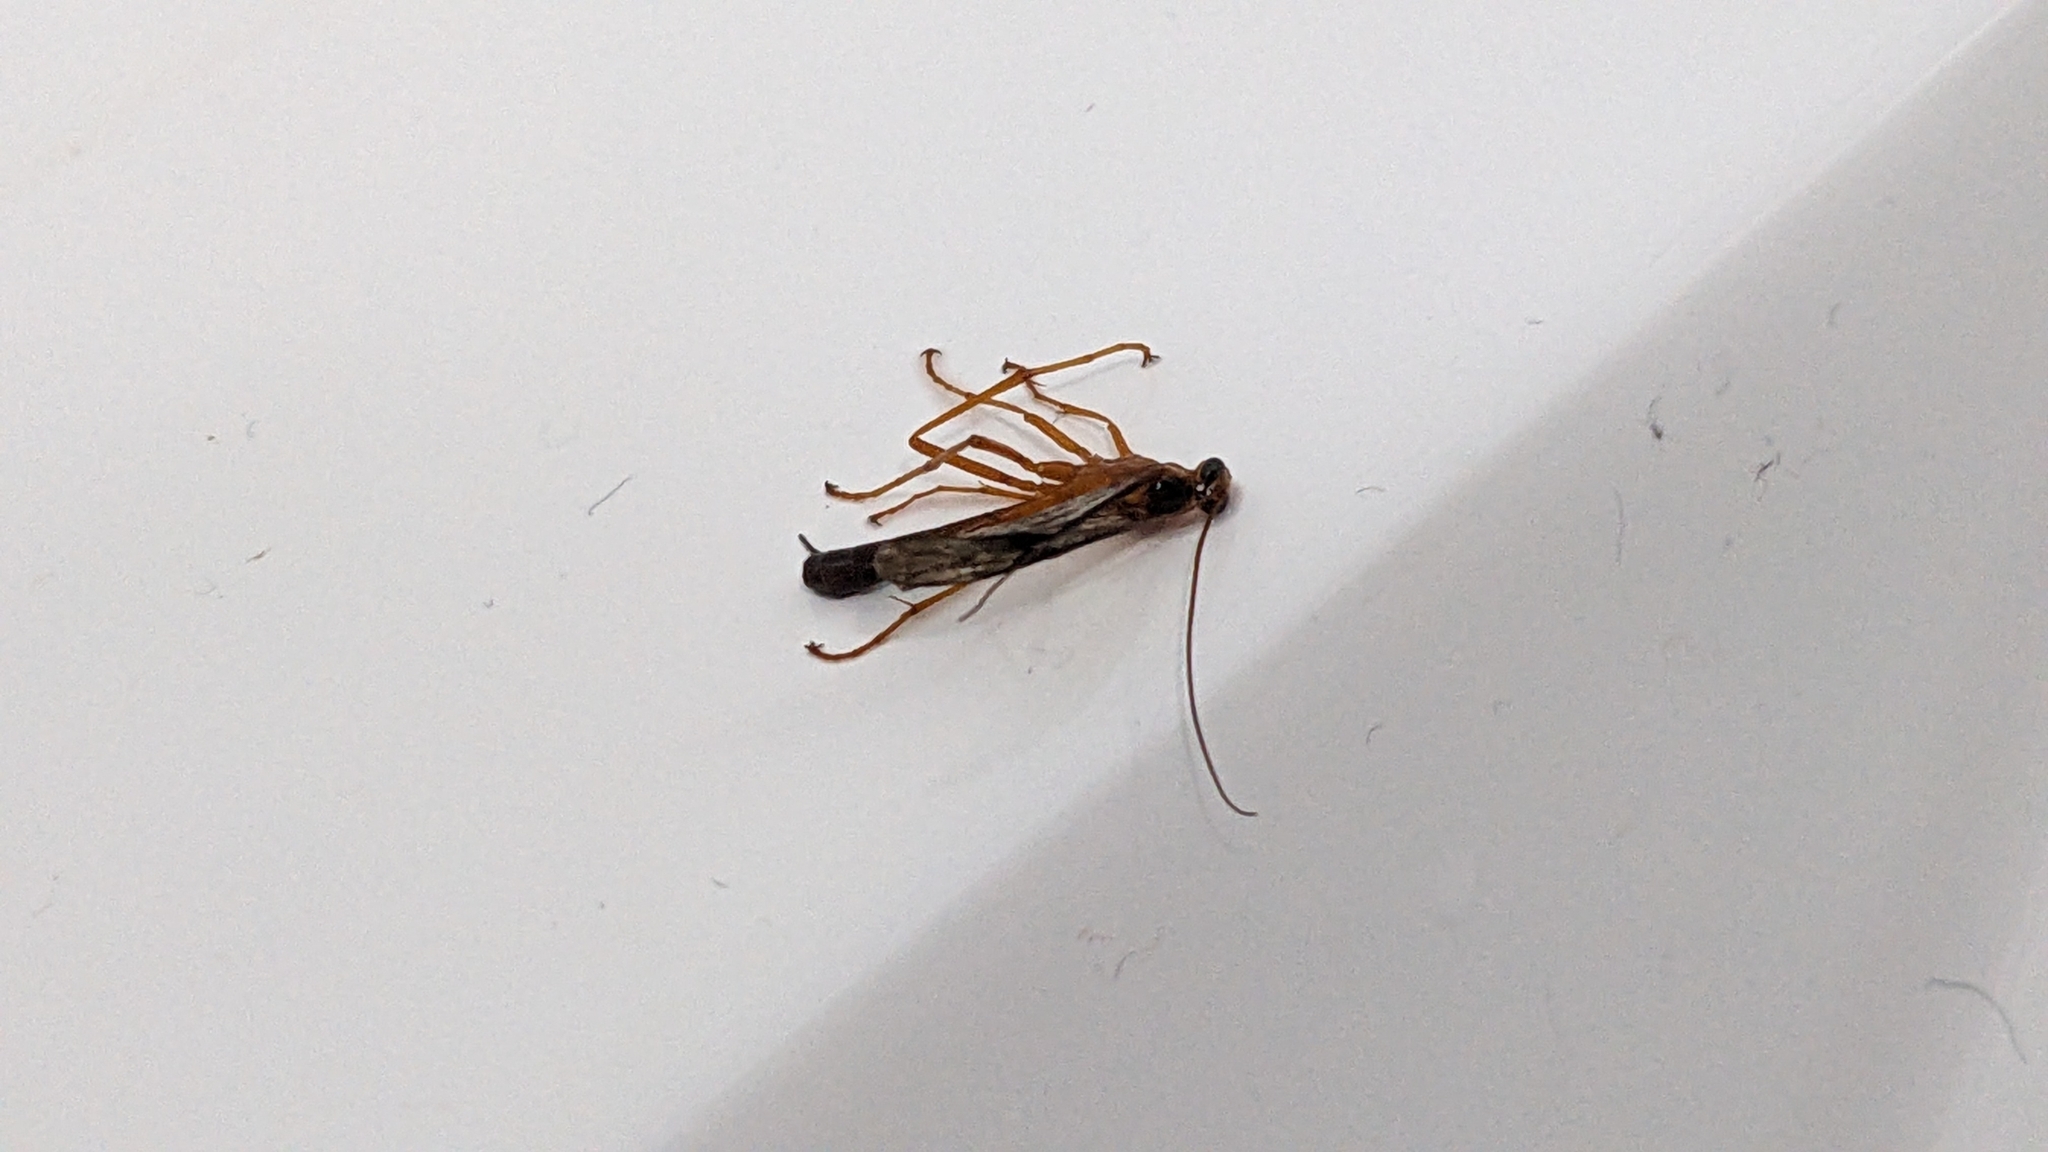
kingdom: Animalia
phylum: Arthropoda
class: Insecta
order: Hymenoptera
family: Ichneumonidae
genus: Netelia
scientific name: Netelia ephippiata
